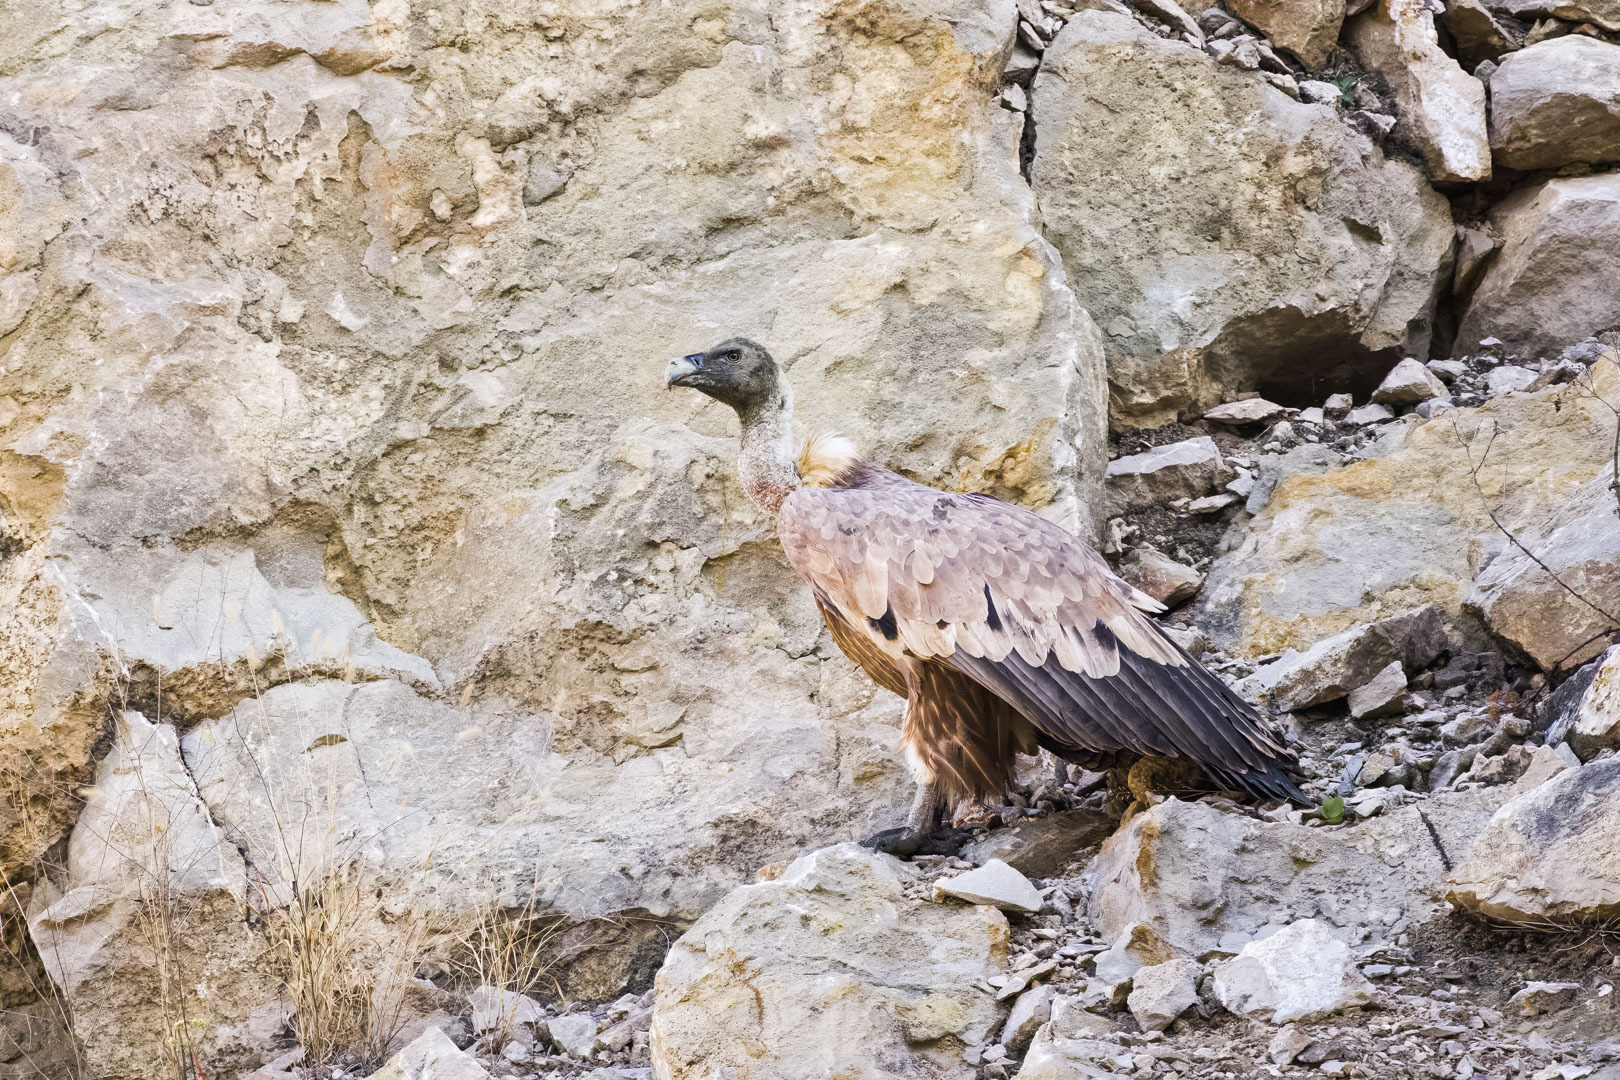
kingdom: Animalia
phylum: Chordata
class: Aves
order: Accipitriformes
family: Accipitridae
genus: Gyps
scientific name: Gyps fulvus
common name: Griffon vulture
